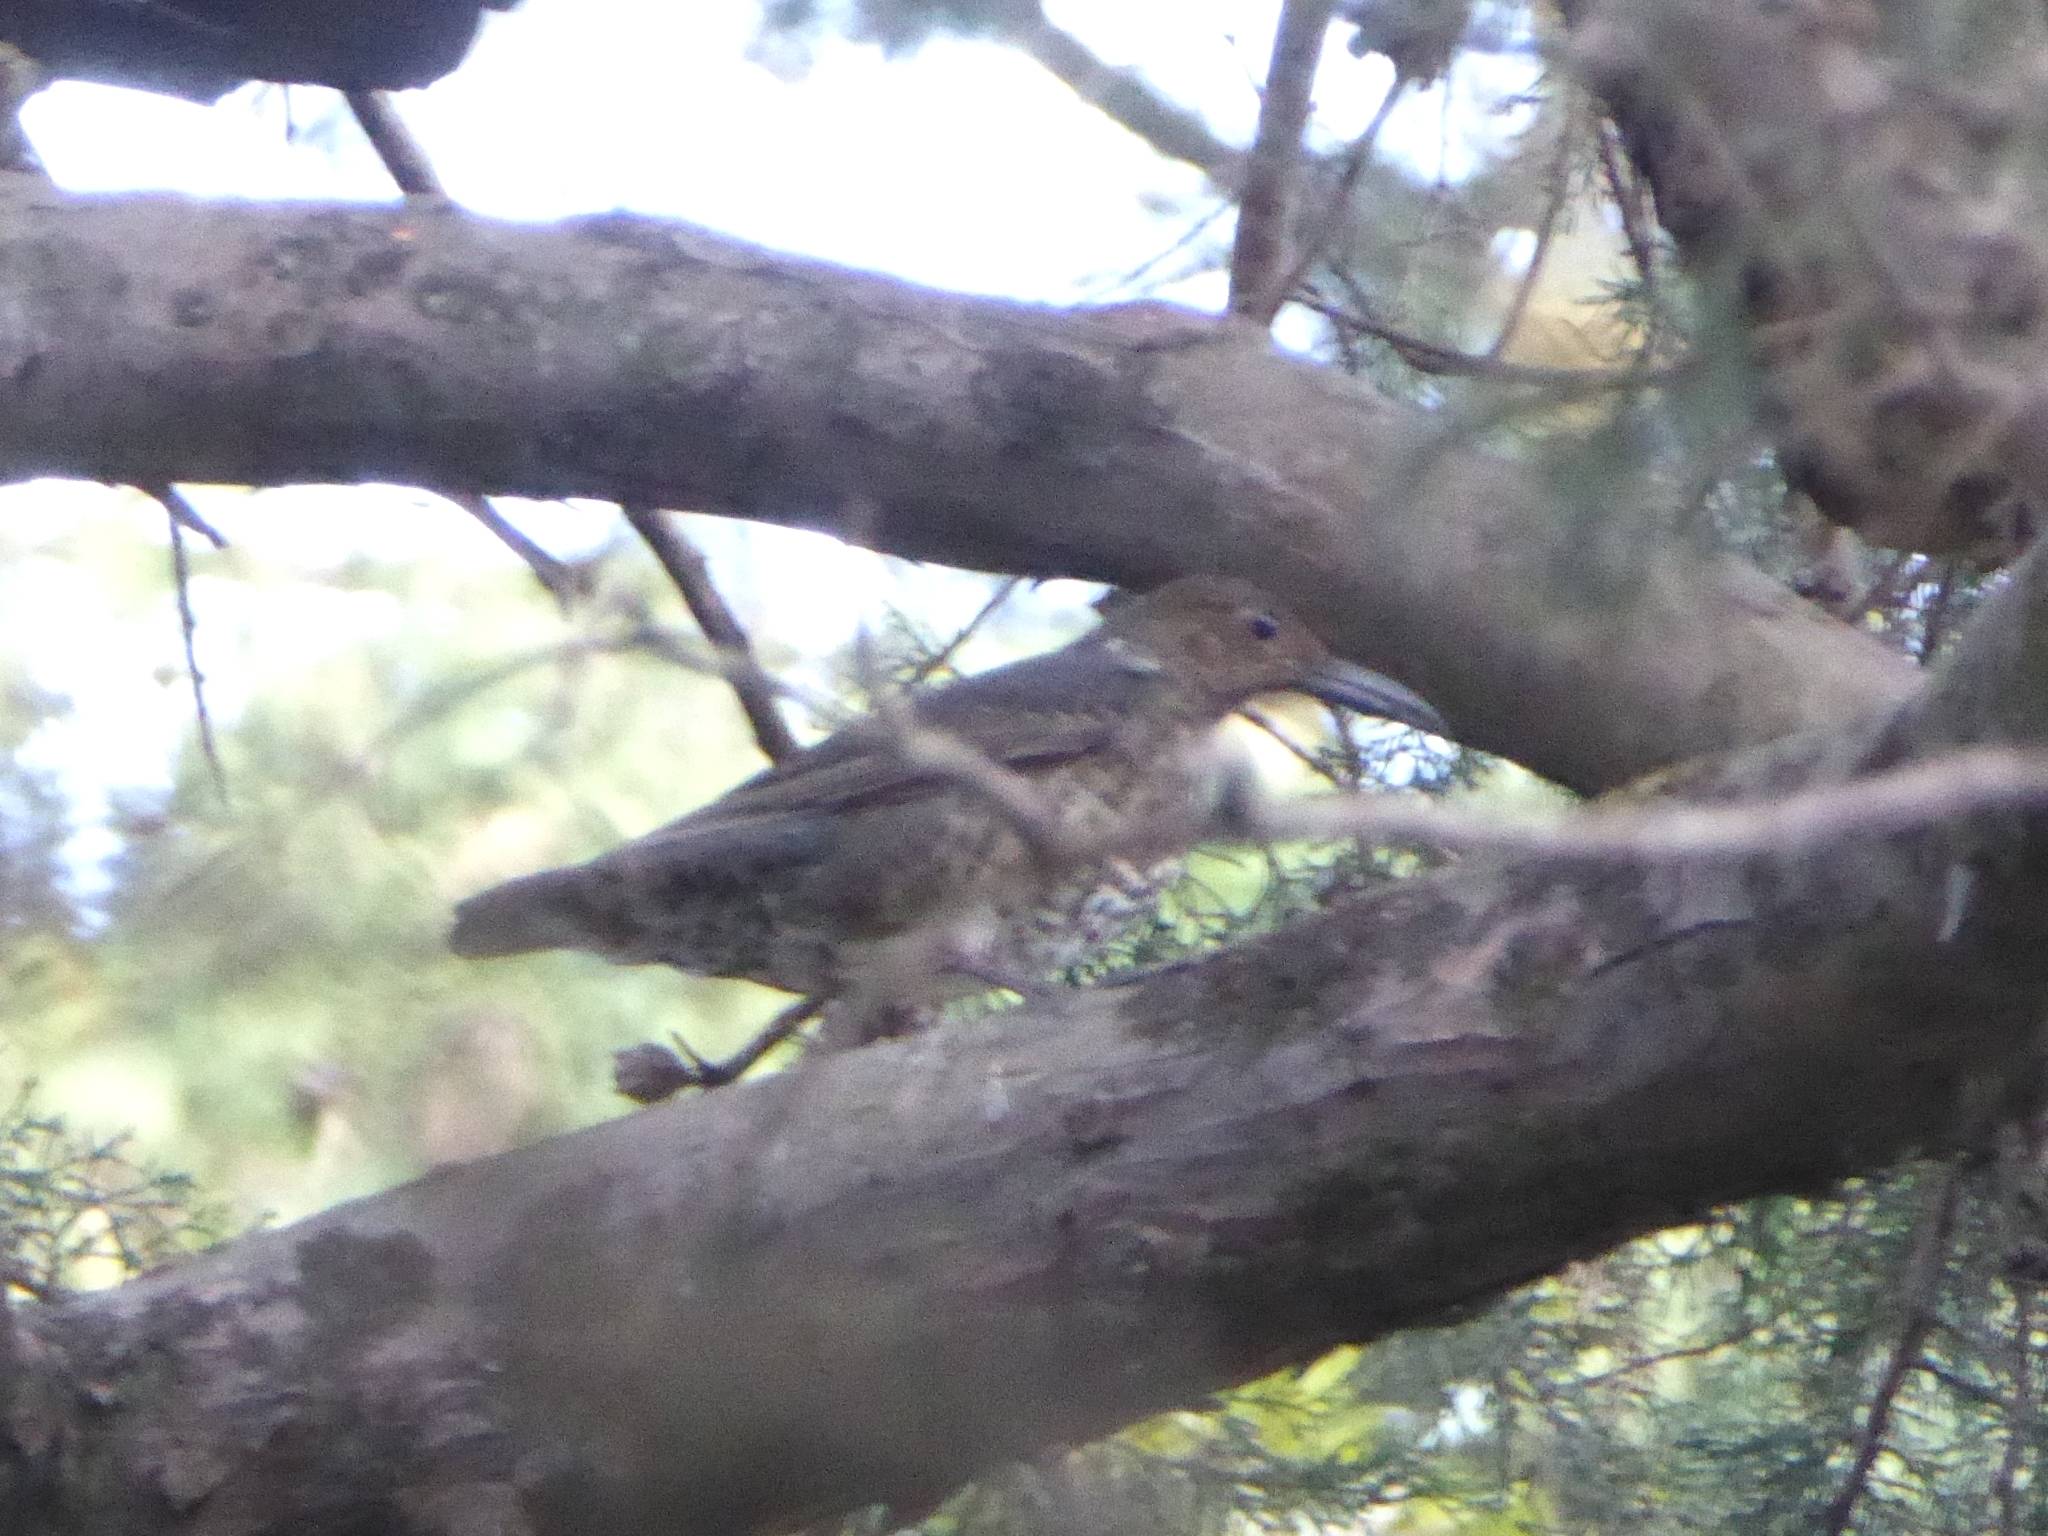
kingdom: Animalia
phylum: Chordata
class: Aves
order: Passeriformes
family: Turdidae
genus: Zoothera
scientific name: Zoothera monticola
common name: Long-billed thrush
